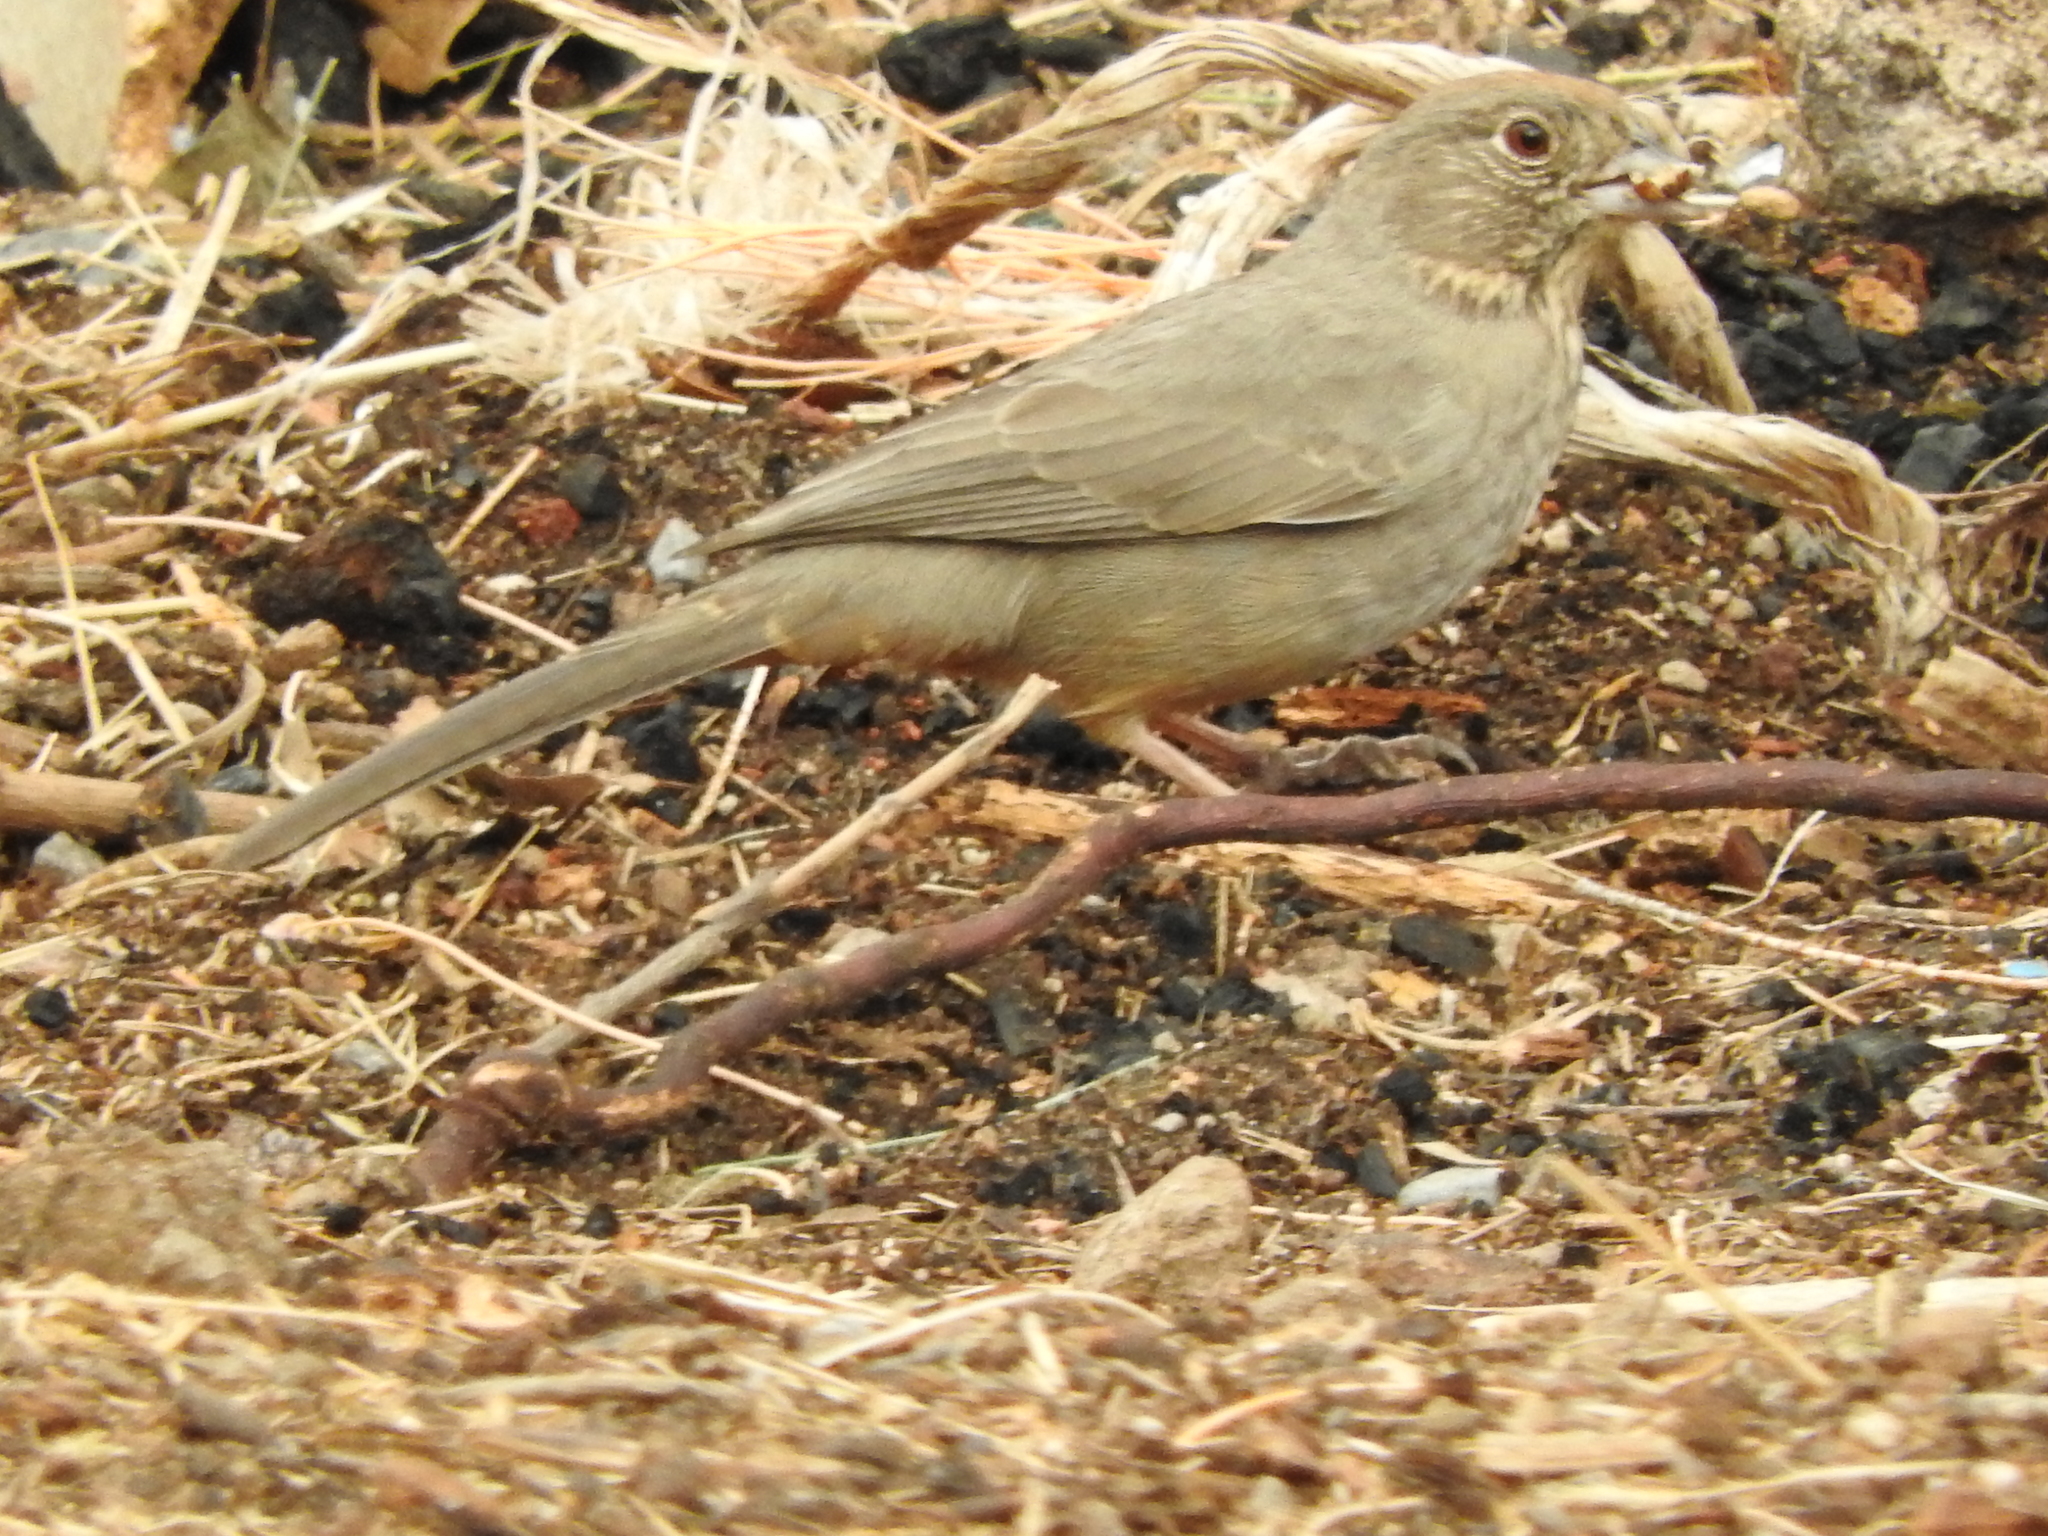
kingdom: Animalia
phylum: Chordata
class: Aves
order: Passeriformes
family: Passerellidae
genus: Melozone
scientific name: Melozone fusca
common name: Canyon towhee
